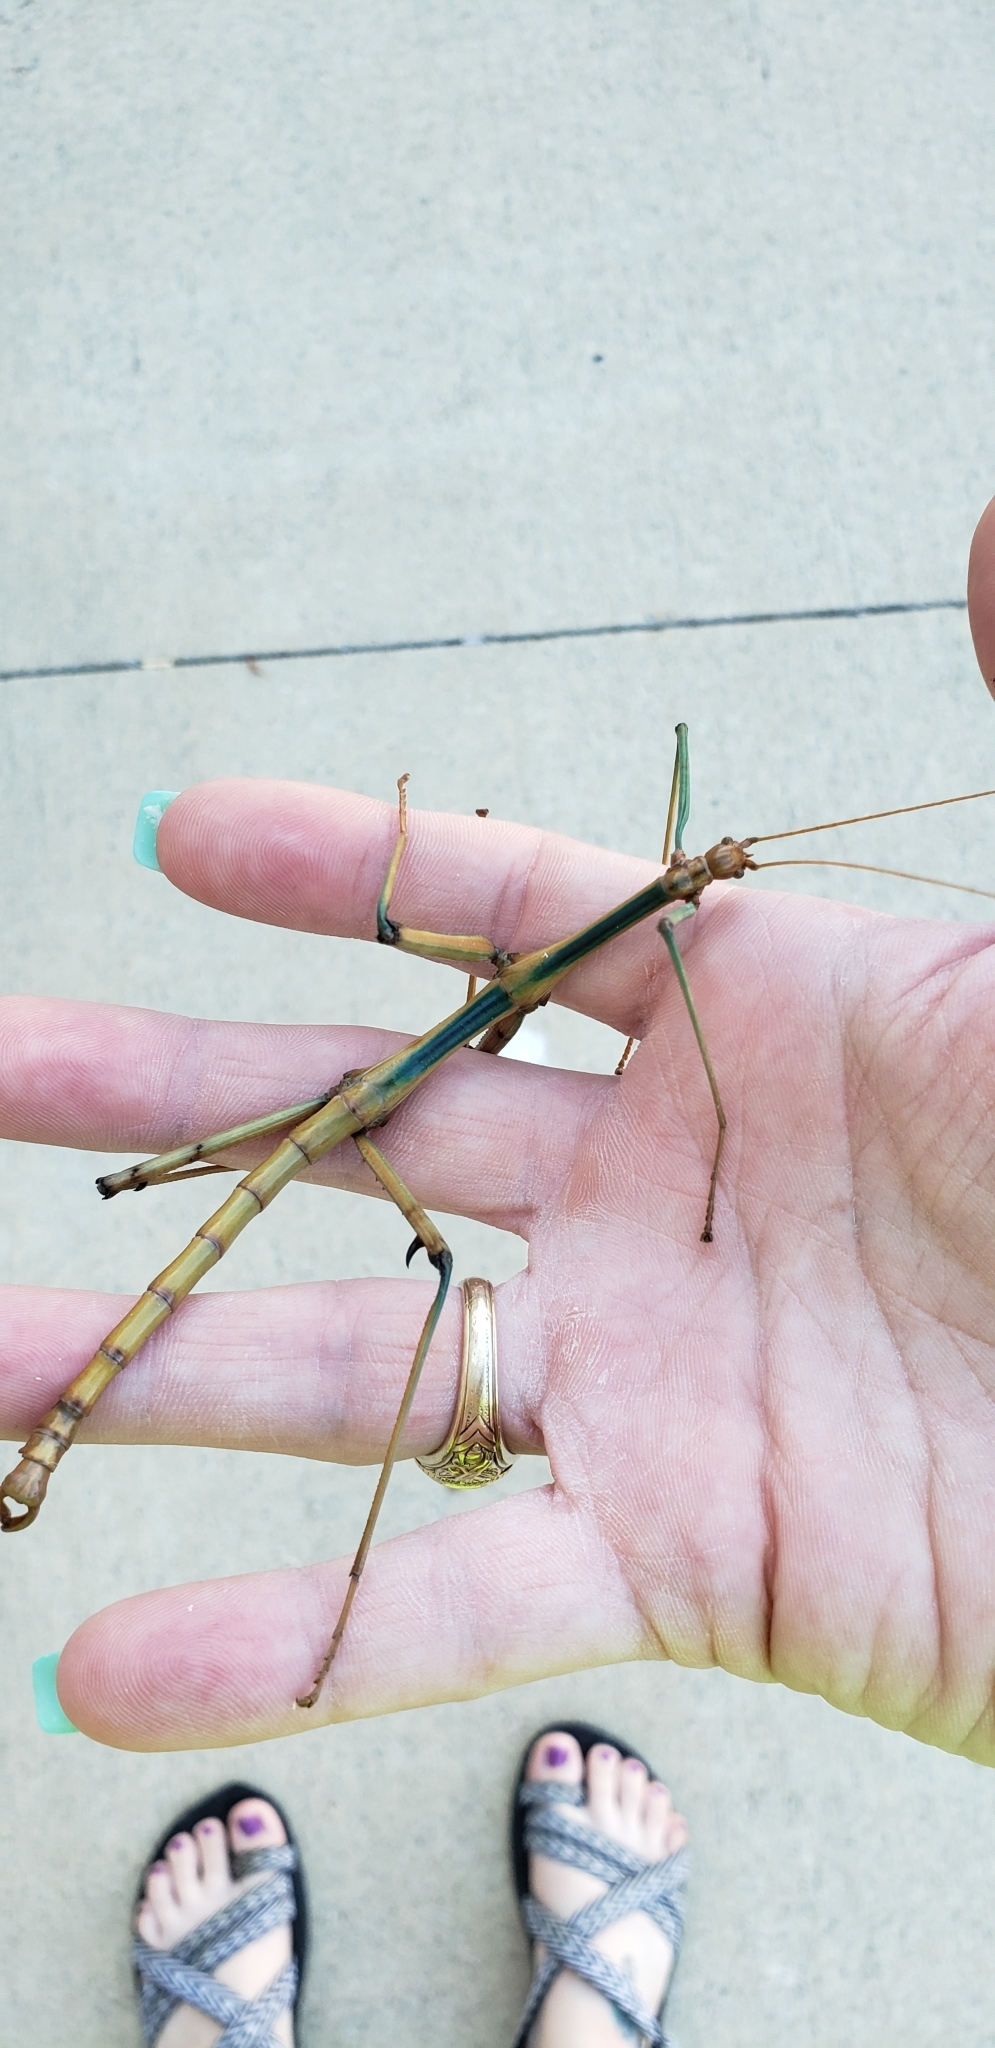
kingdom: Animalia
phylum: Arthropoda
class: Insecta
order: Phasmida
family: Diapheromeridae
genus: Megaphasma
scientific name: Megaphasma denticrus
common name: Giant walkingstick
